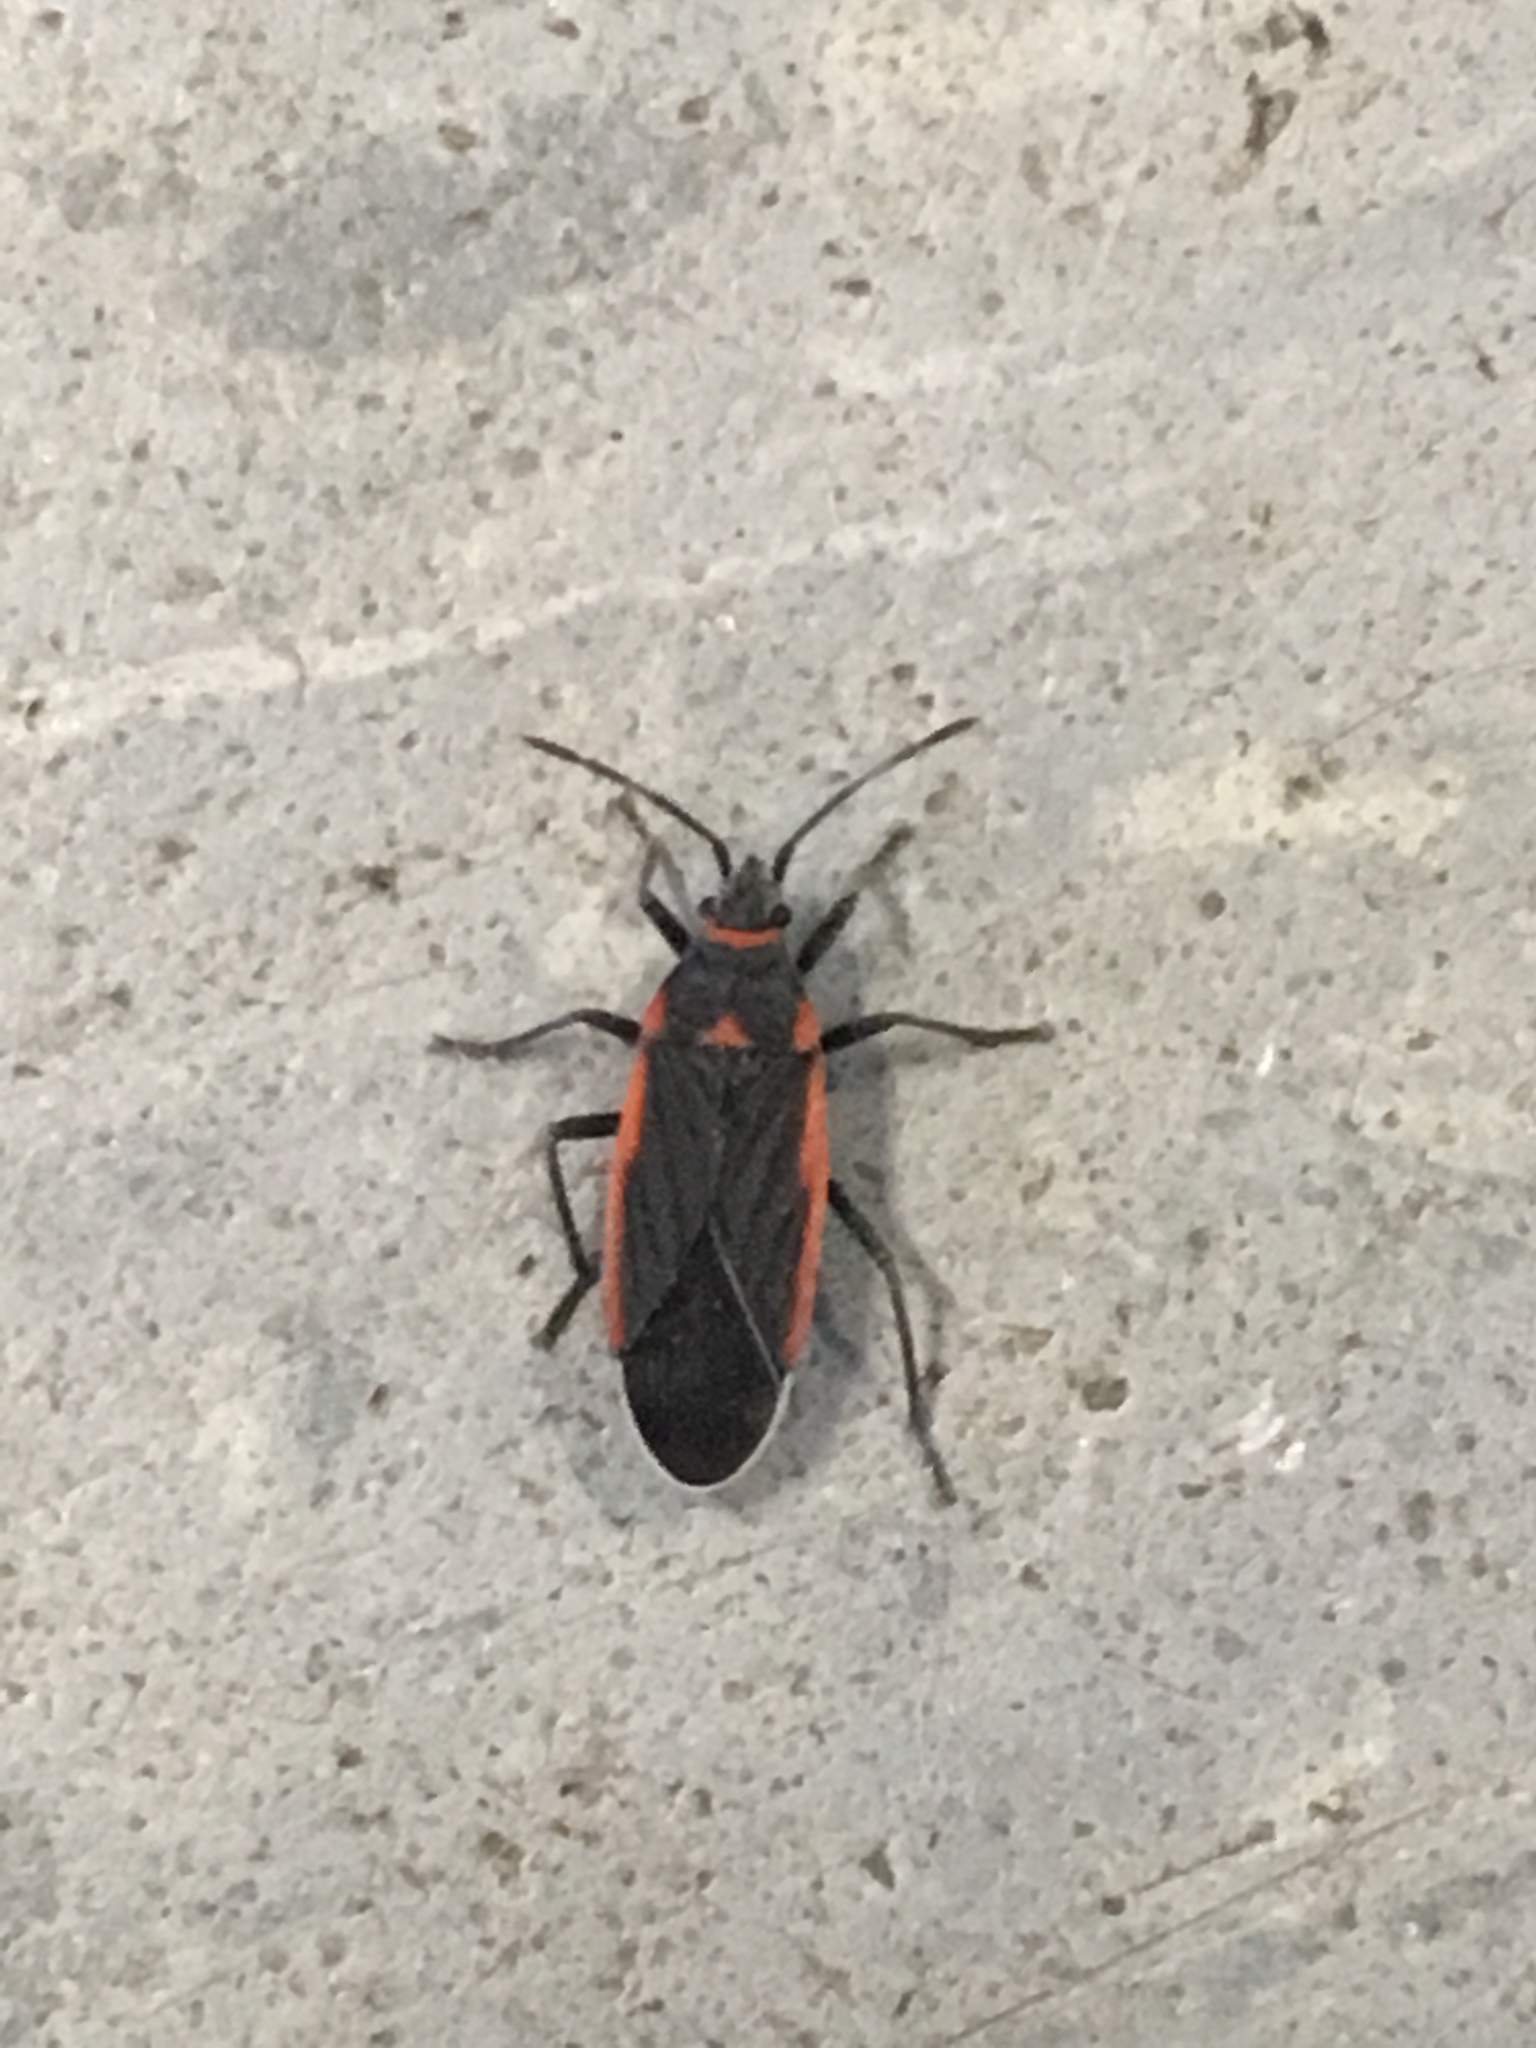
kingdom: Animalia
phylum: Arthropoda
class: Insecta
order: Hemiptera
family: Lygaeidae
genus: Melacoryphus
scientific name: Melacoryphus lateralis
